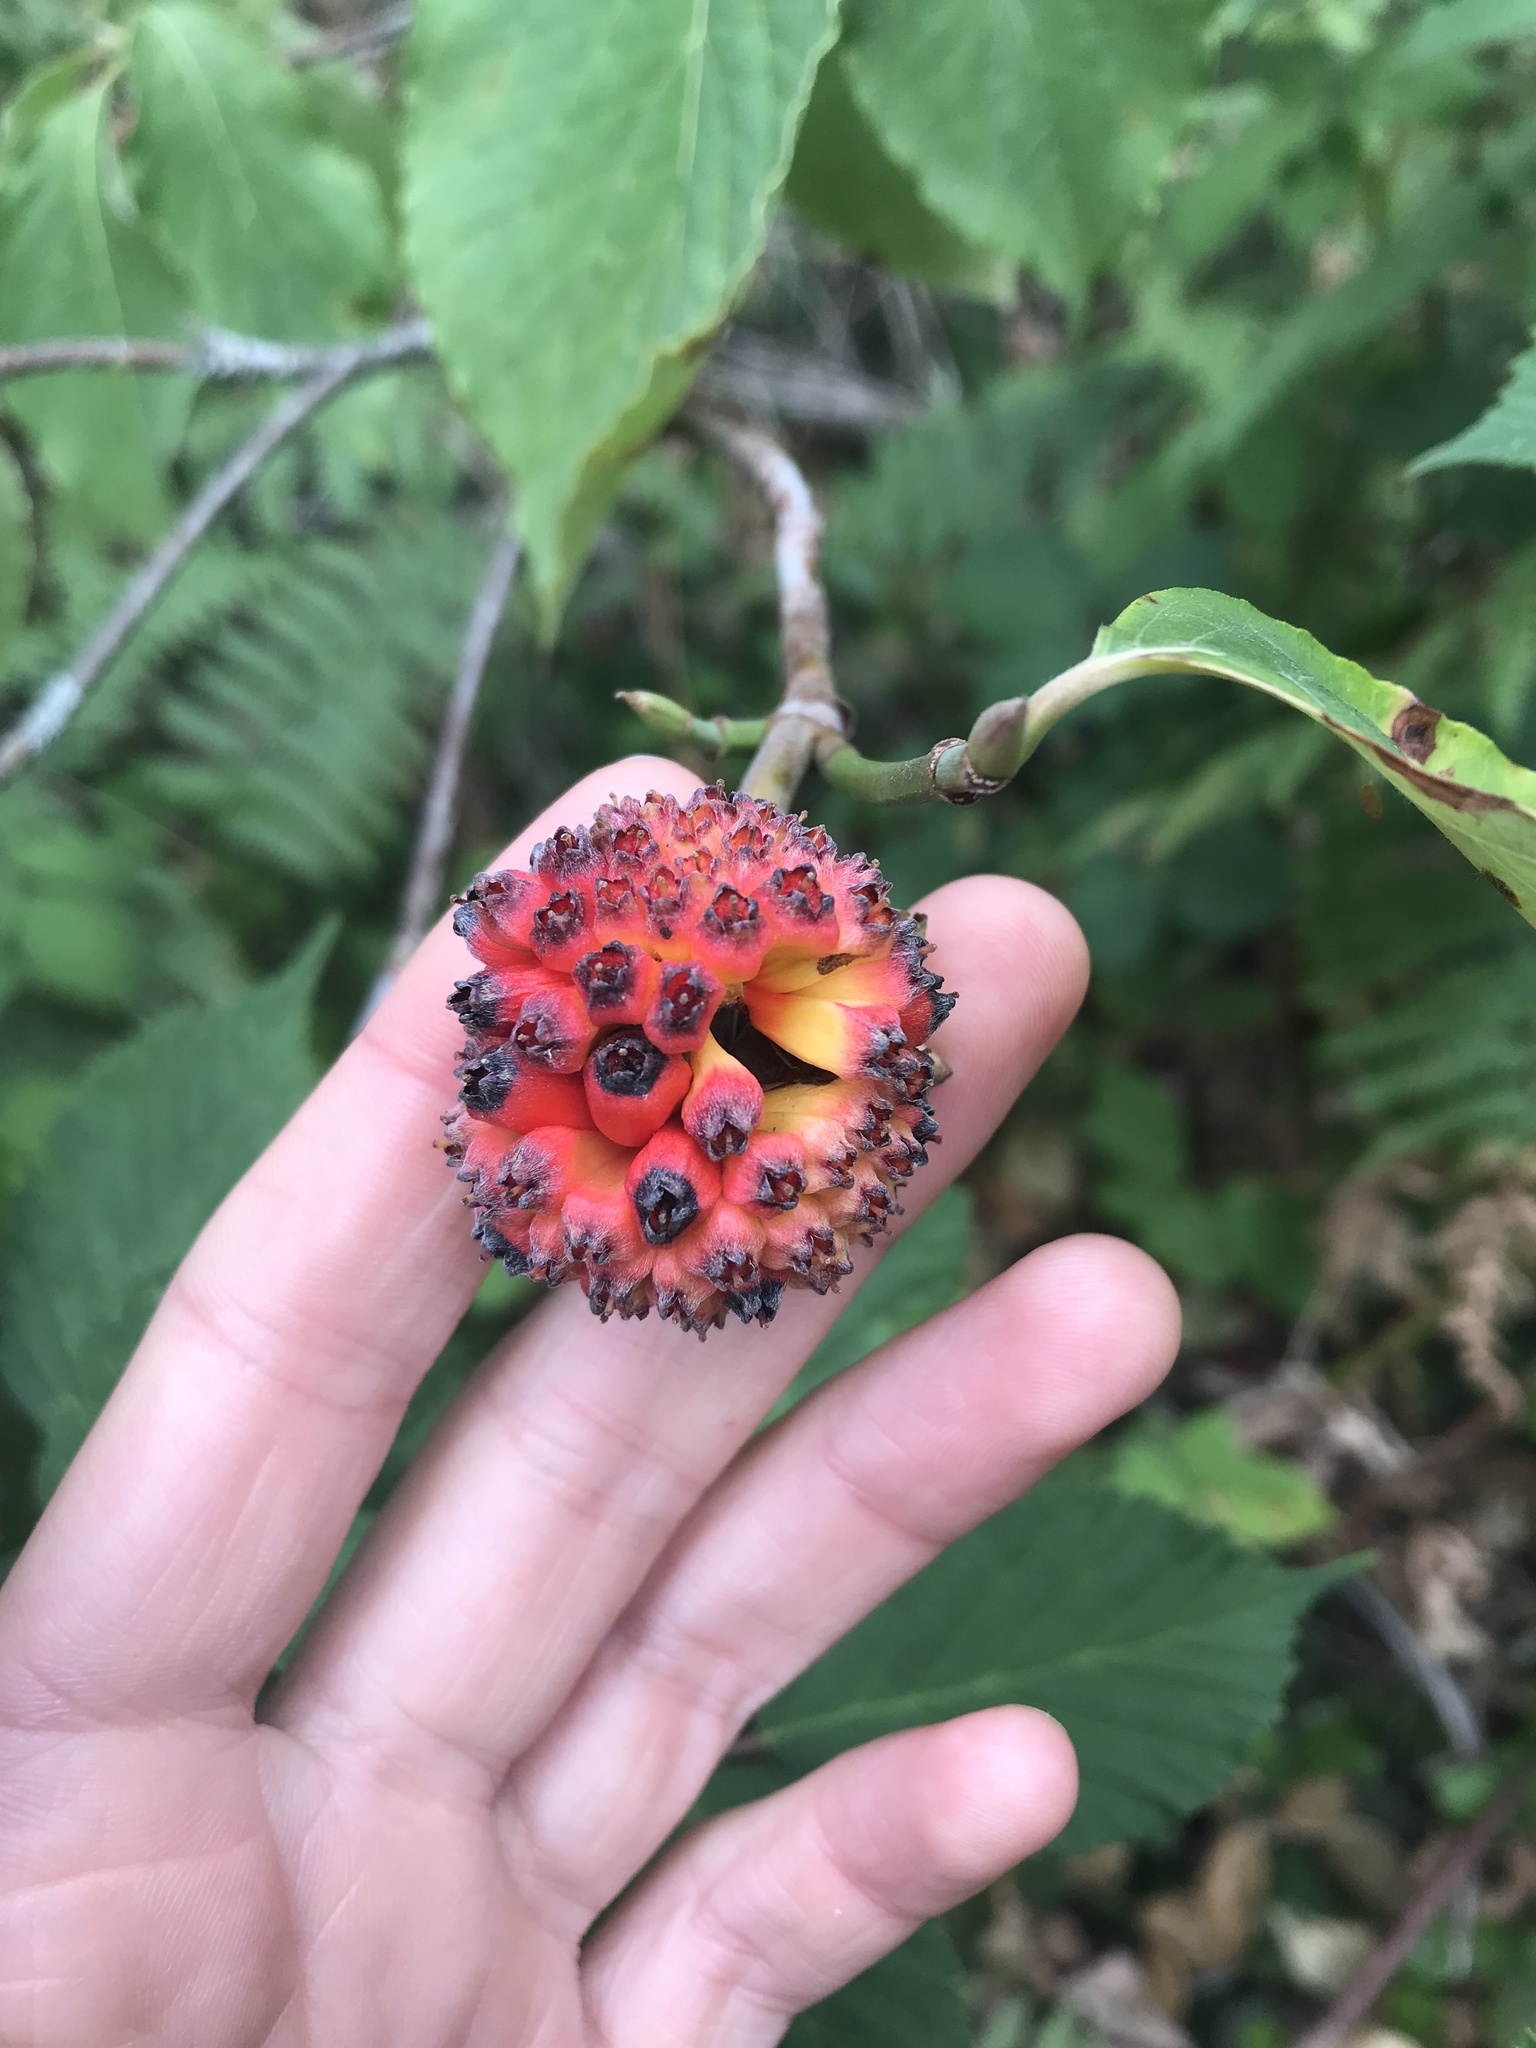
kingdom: Plantae
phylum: Tracheophyta
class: Magnoliopsida
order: Cornales
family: Cornaceae
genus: Cornus
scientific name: Cornus nuttallii
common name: Pacific dogwood
